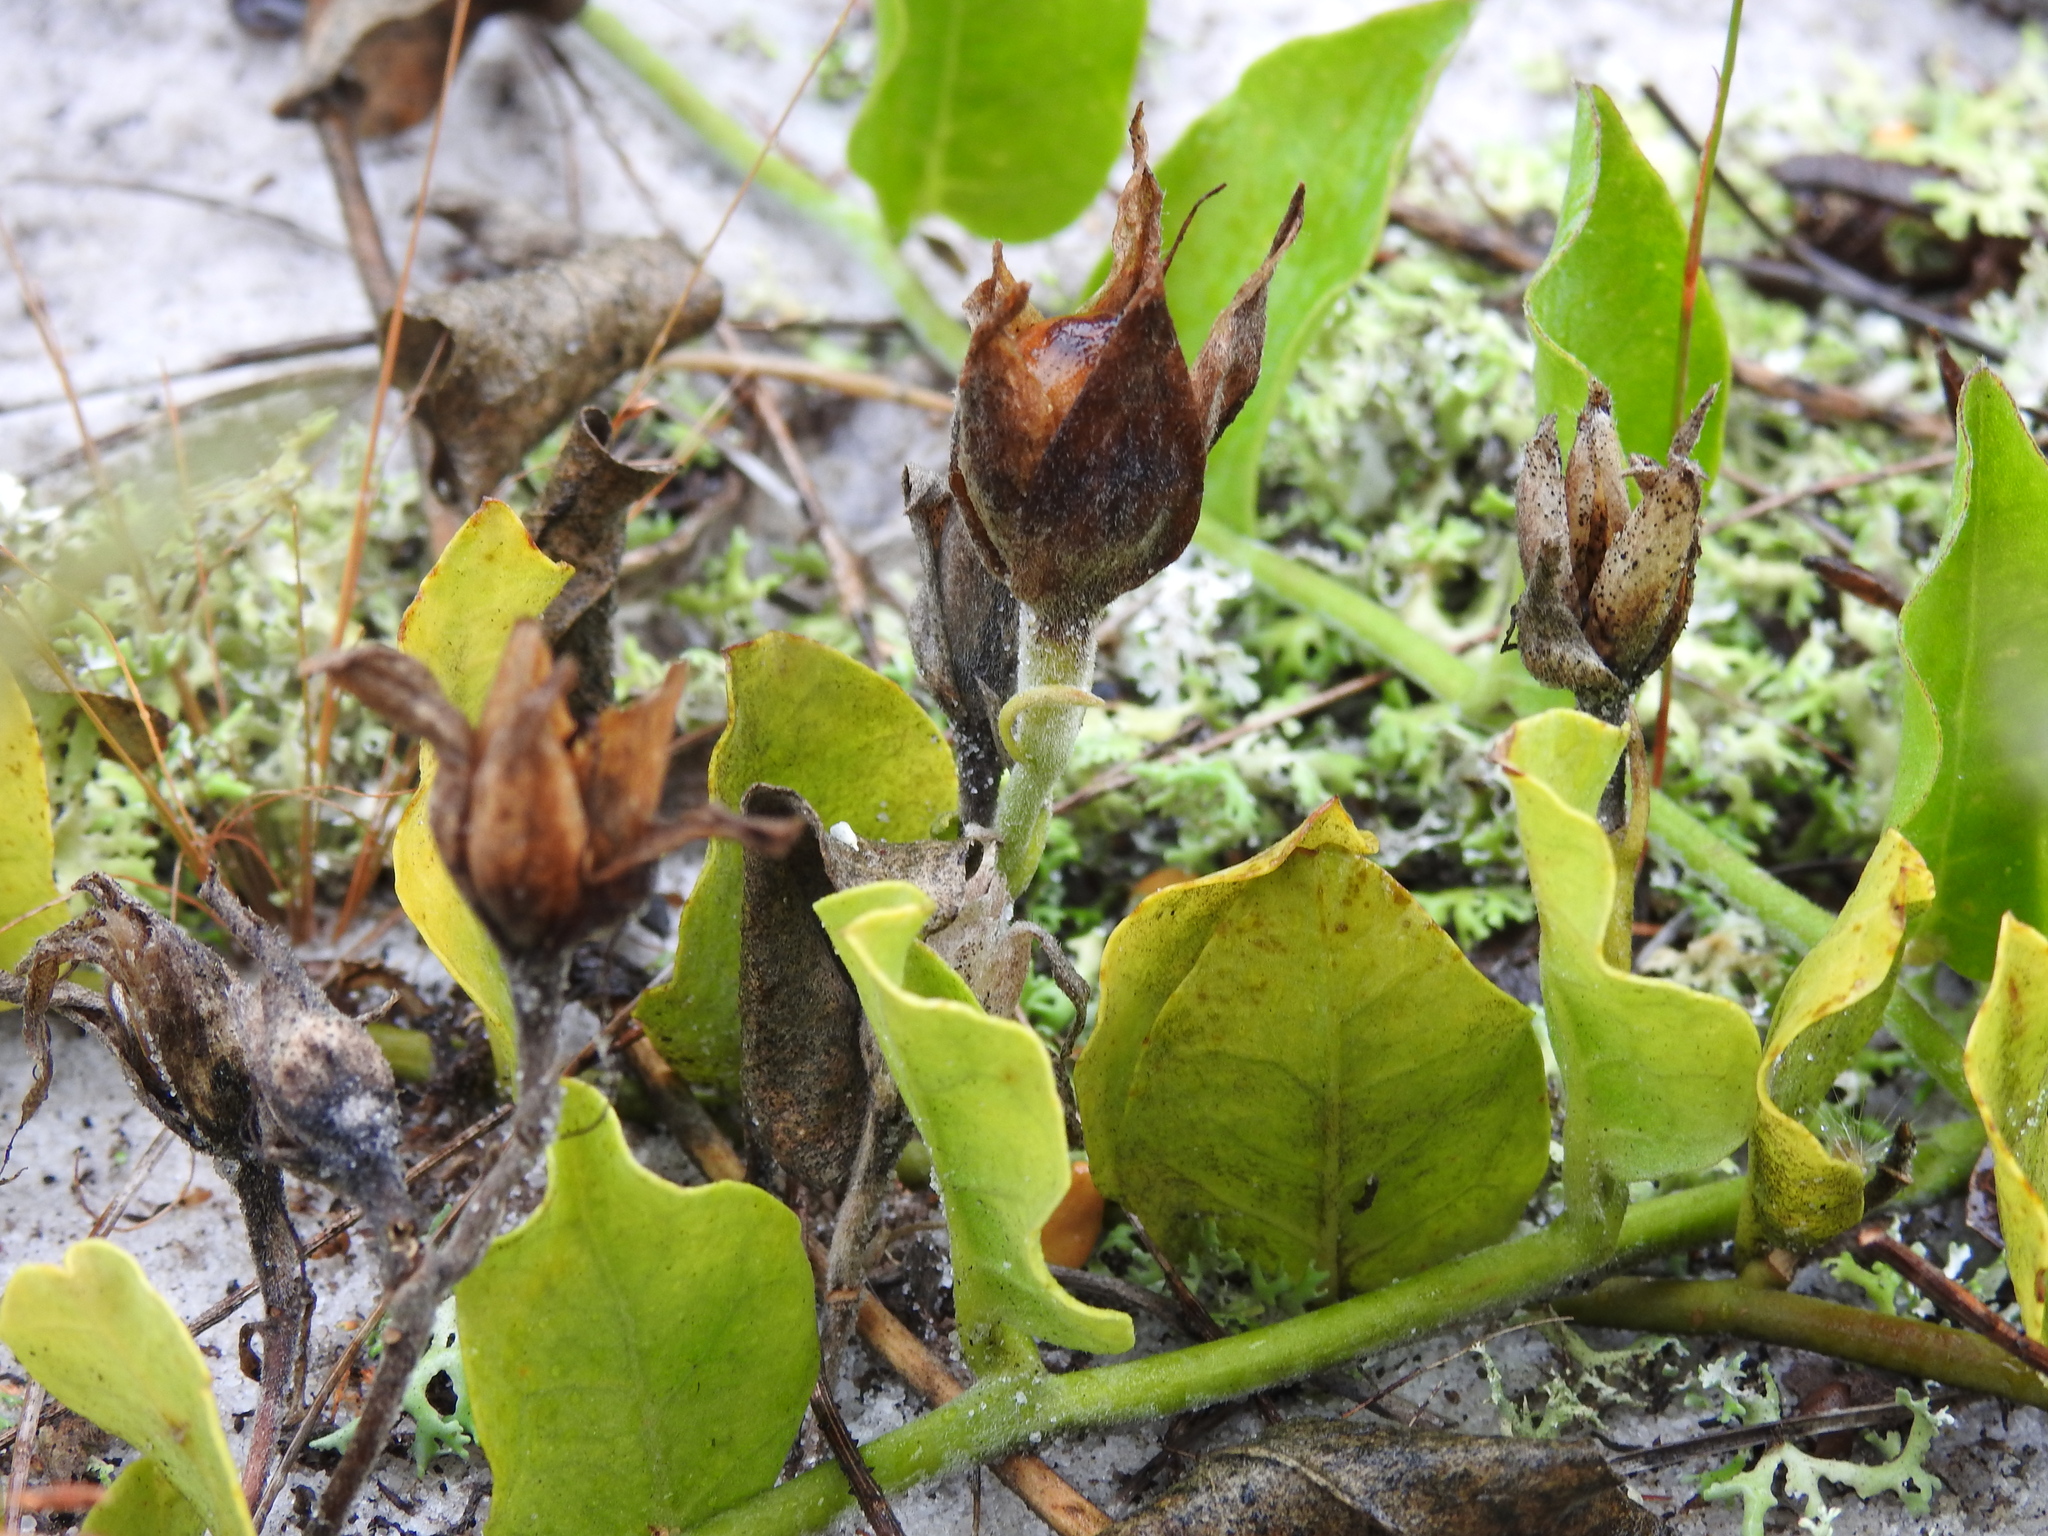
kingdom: Plantae
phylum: Tracheophyta
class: Magnoliopsida
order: Solanales
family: Convolvulaceae
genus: Bonamia
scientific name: Bonamia grandiflora
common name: Florida bonamia
